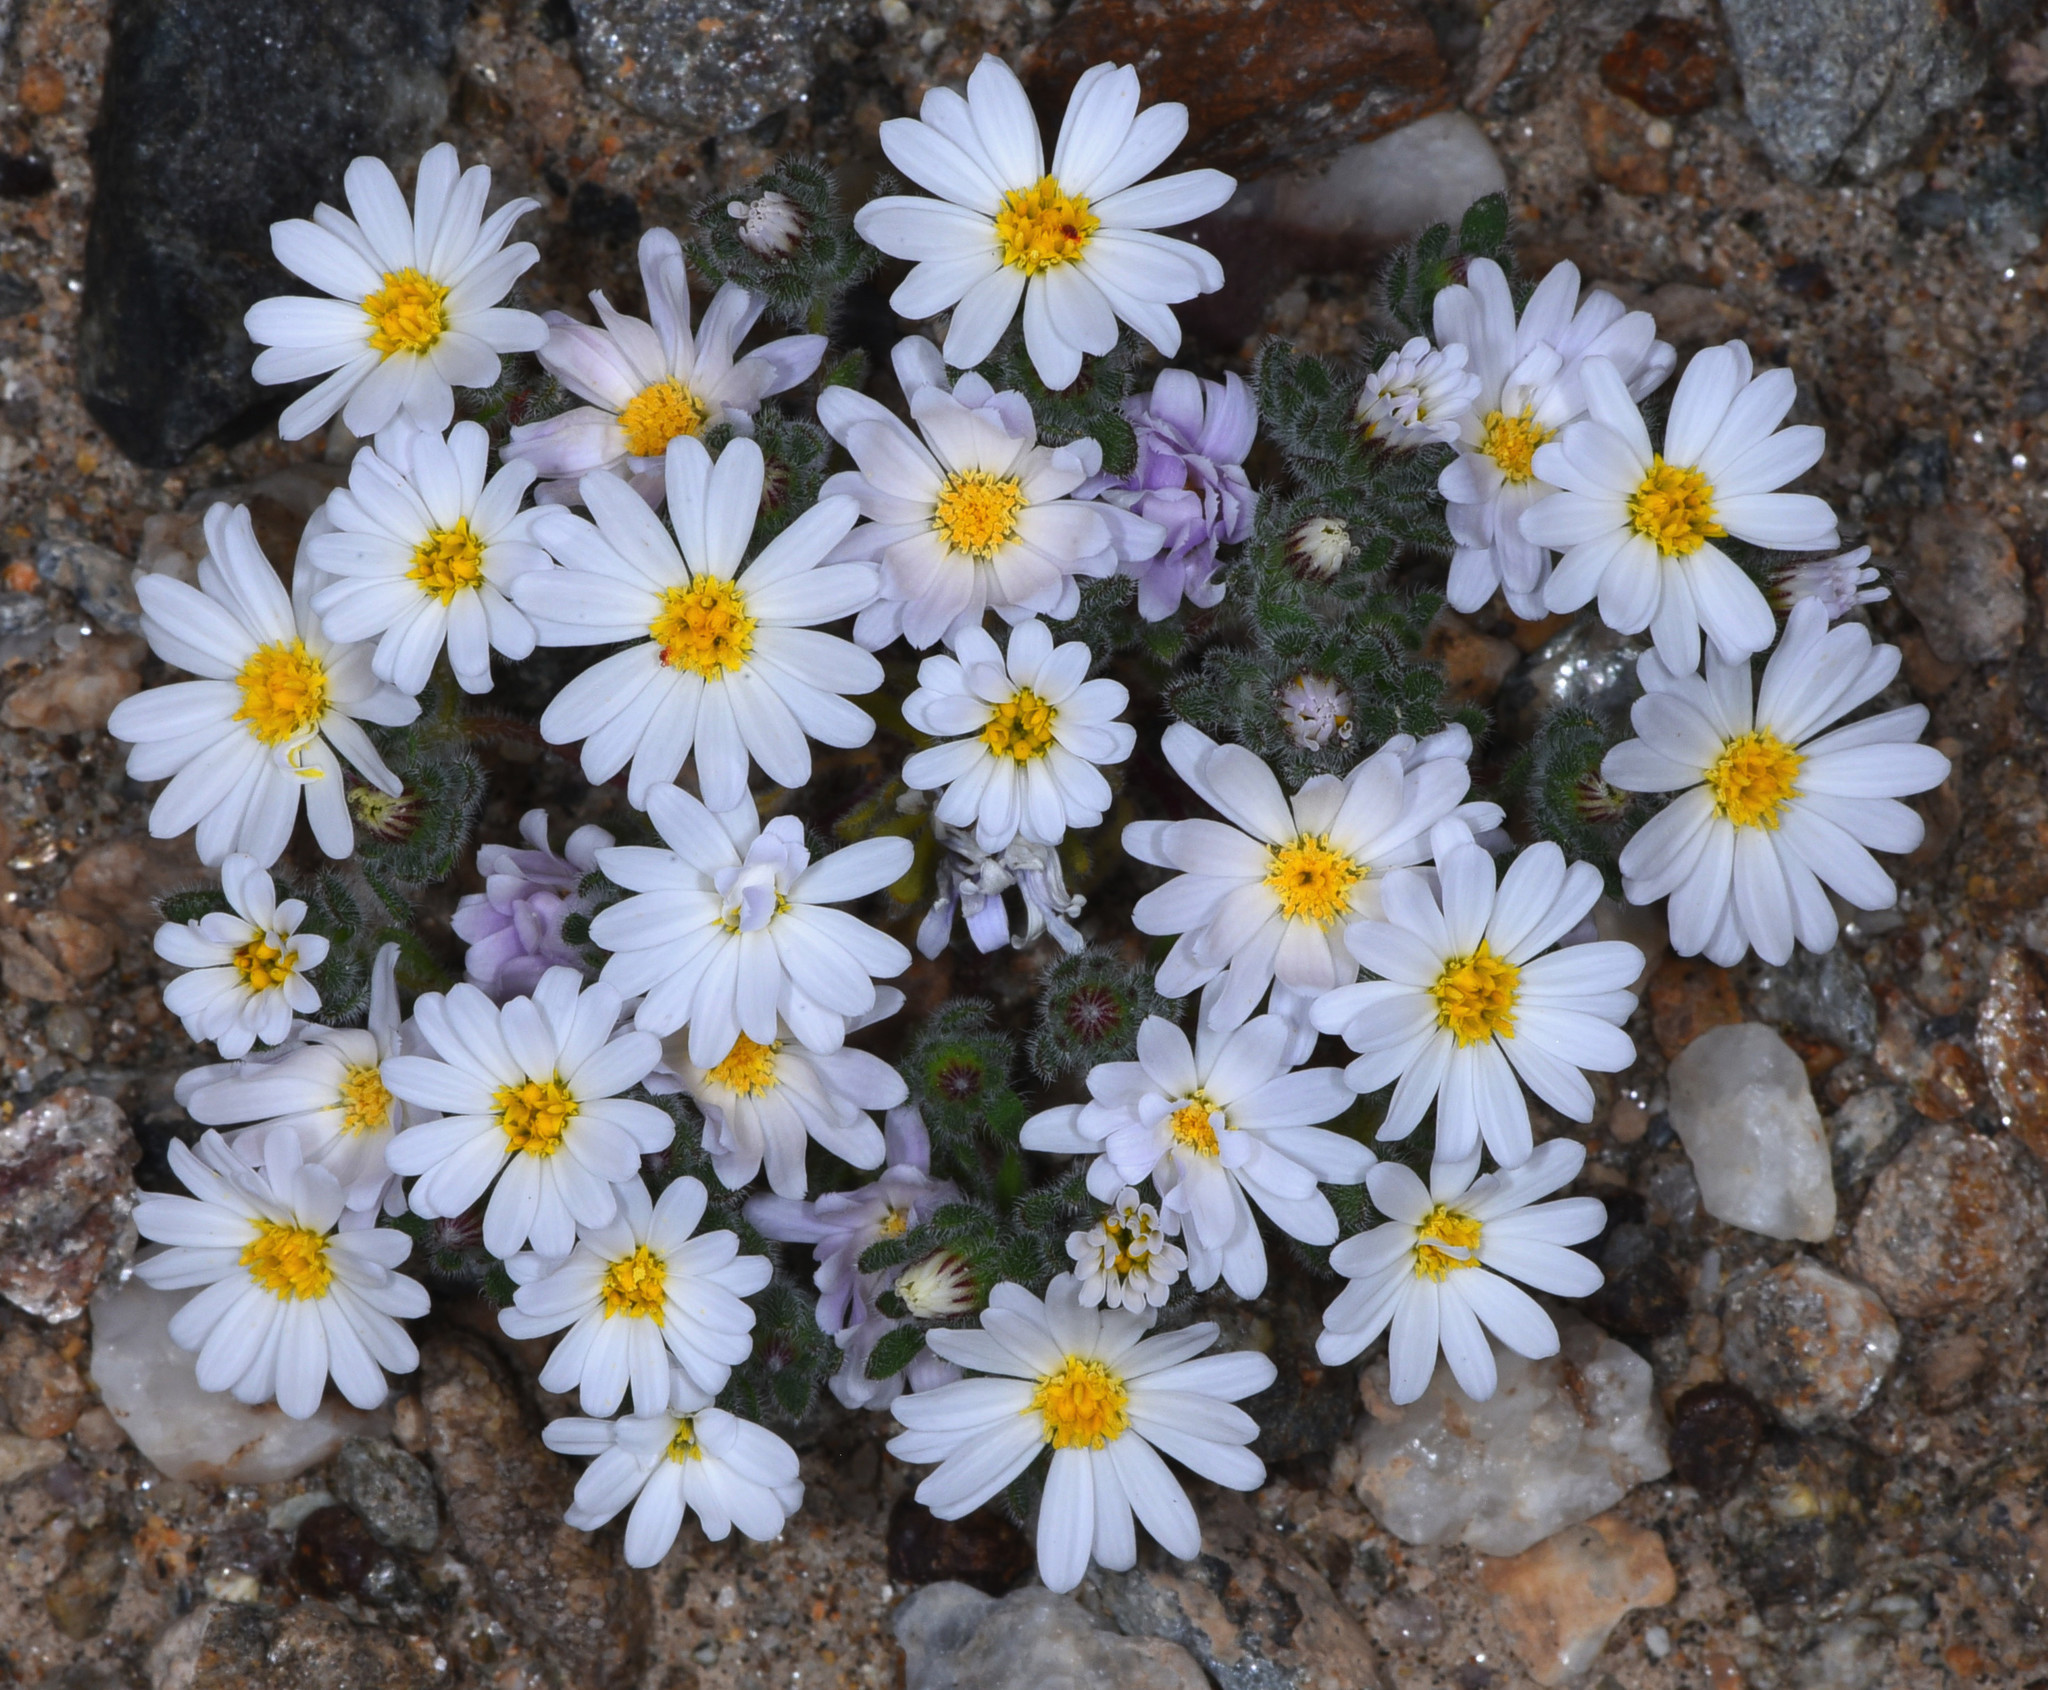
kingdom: Plantae
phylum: Tracheophyta
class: Magnoliopsida
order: Asterales
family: Asteraceae
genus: Monoptilon
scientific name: Monoptilon bellioides
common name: Bristly desertstar
